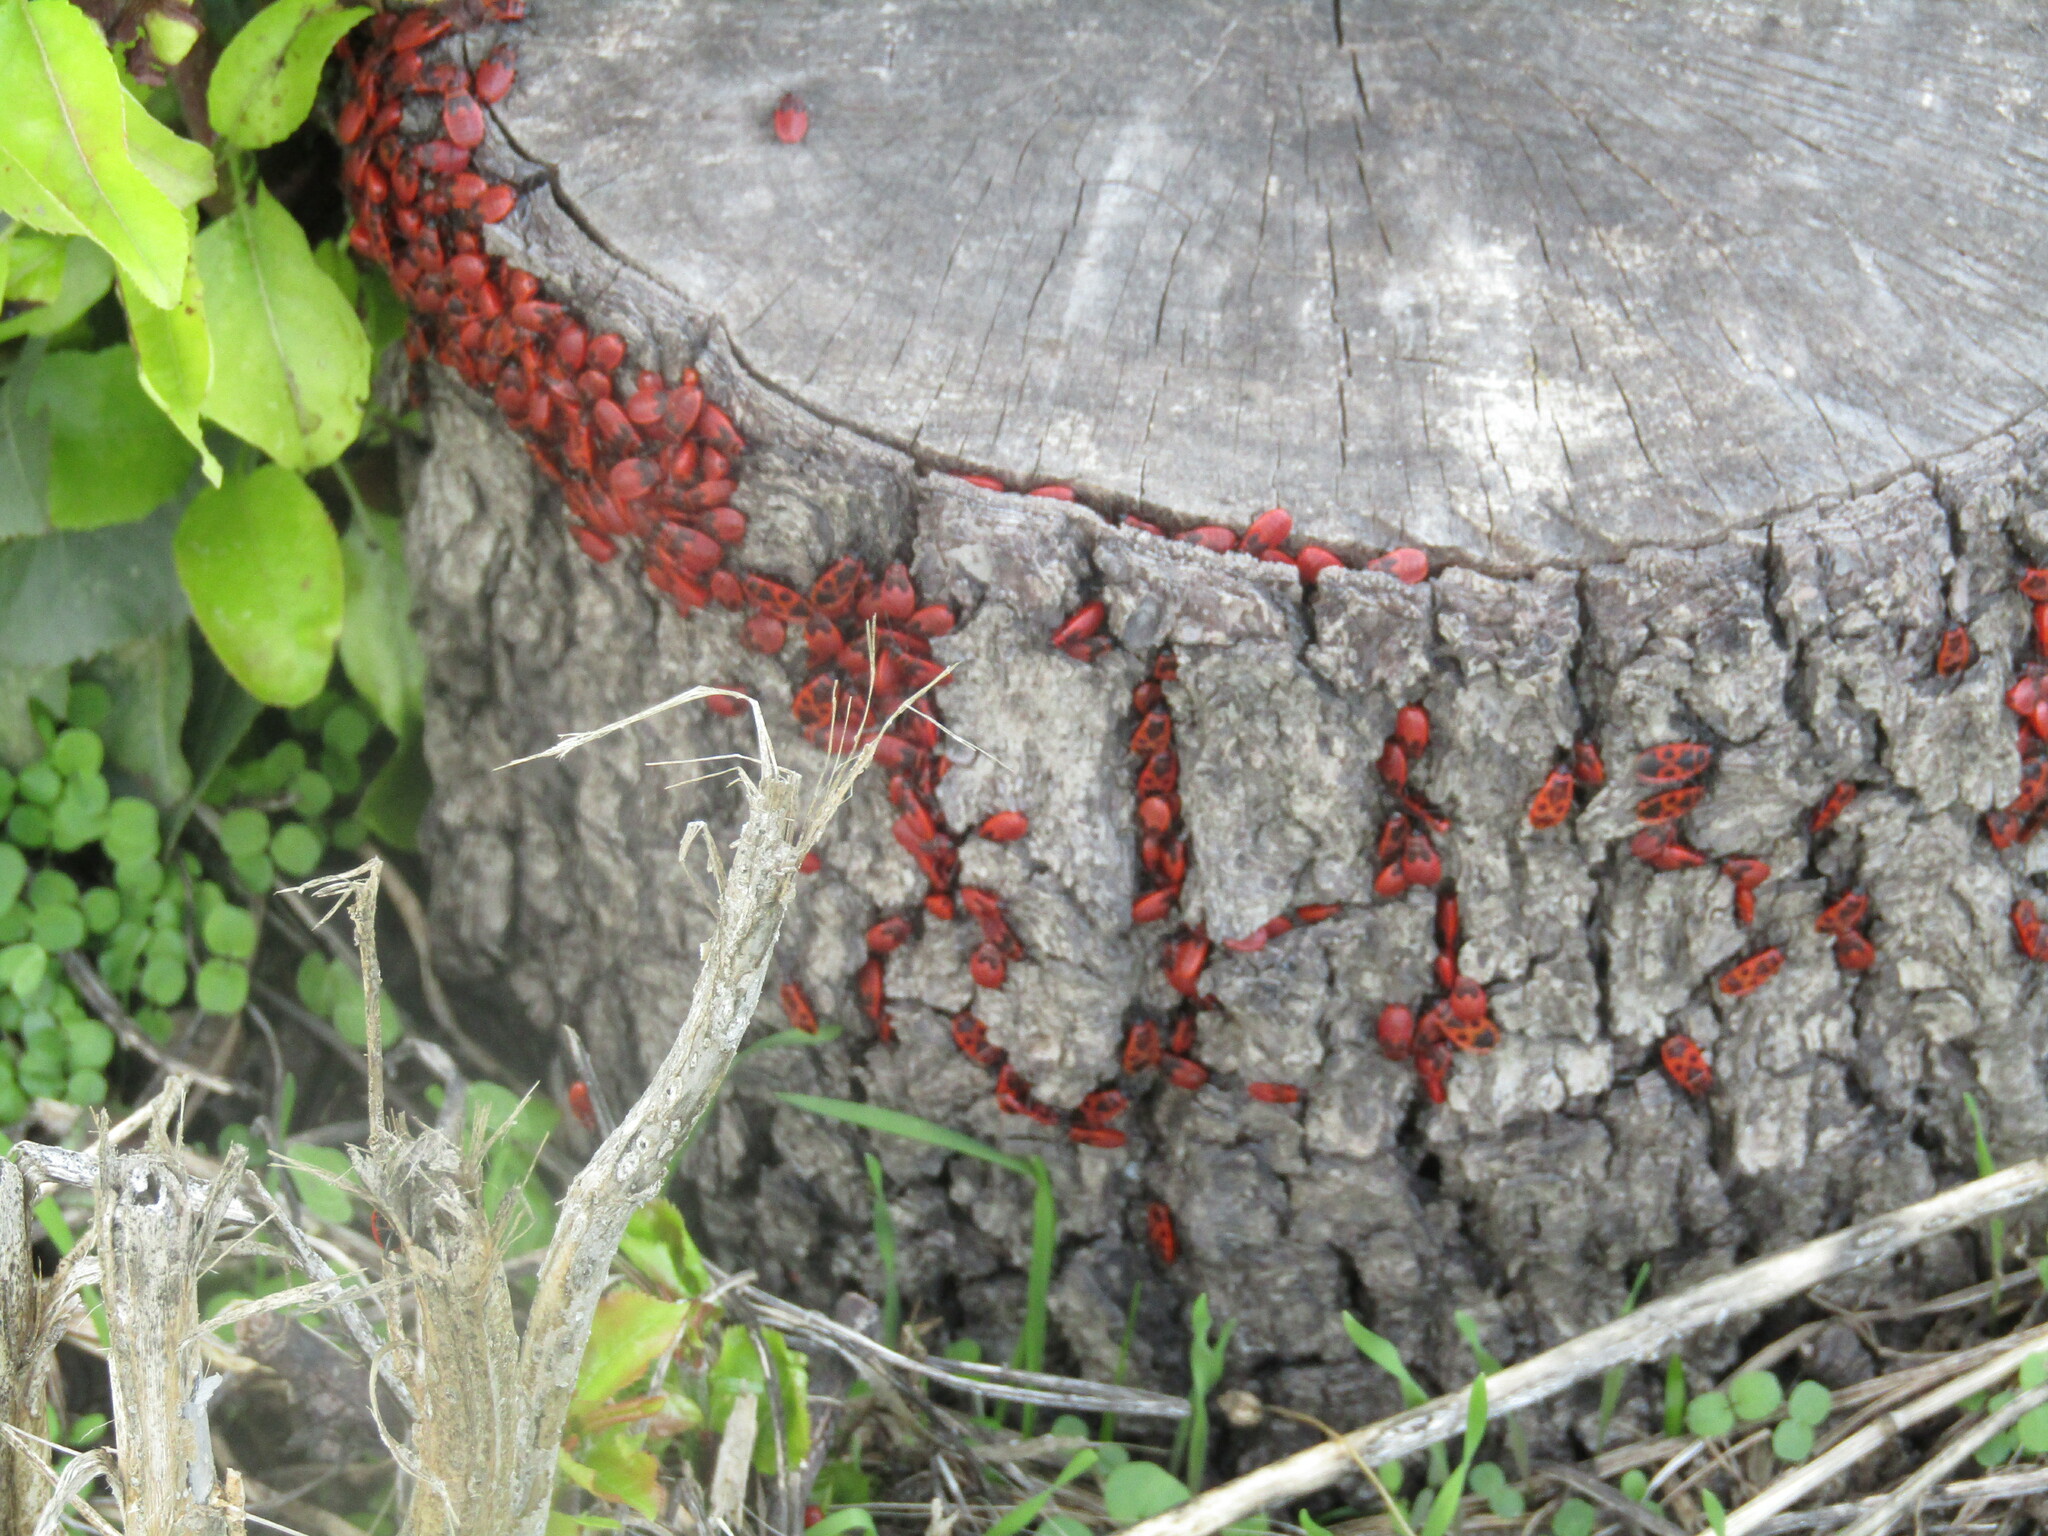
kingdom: Animalia
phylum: Arthropoda
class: Insecta
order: Hemiptera
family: Pyrrhocoridae
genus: Pyrrhocoris
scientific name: Pyrrhocoris apterus
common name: Firebug
